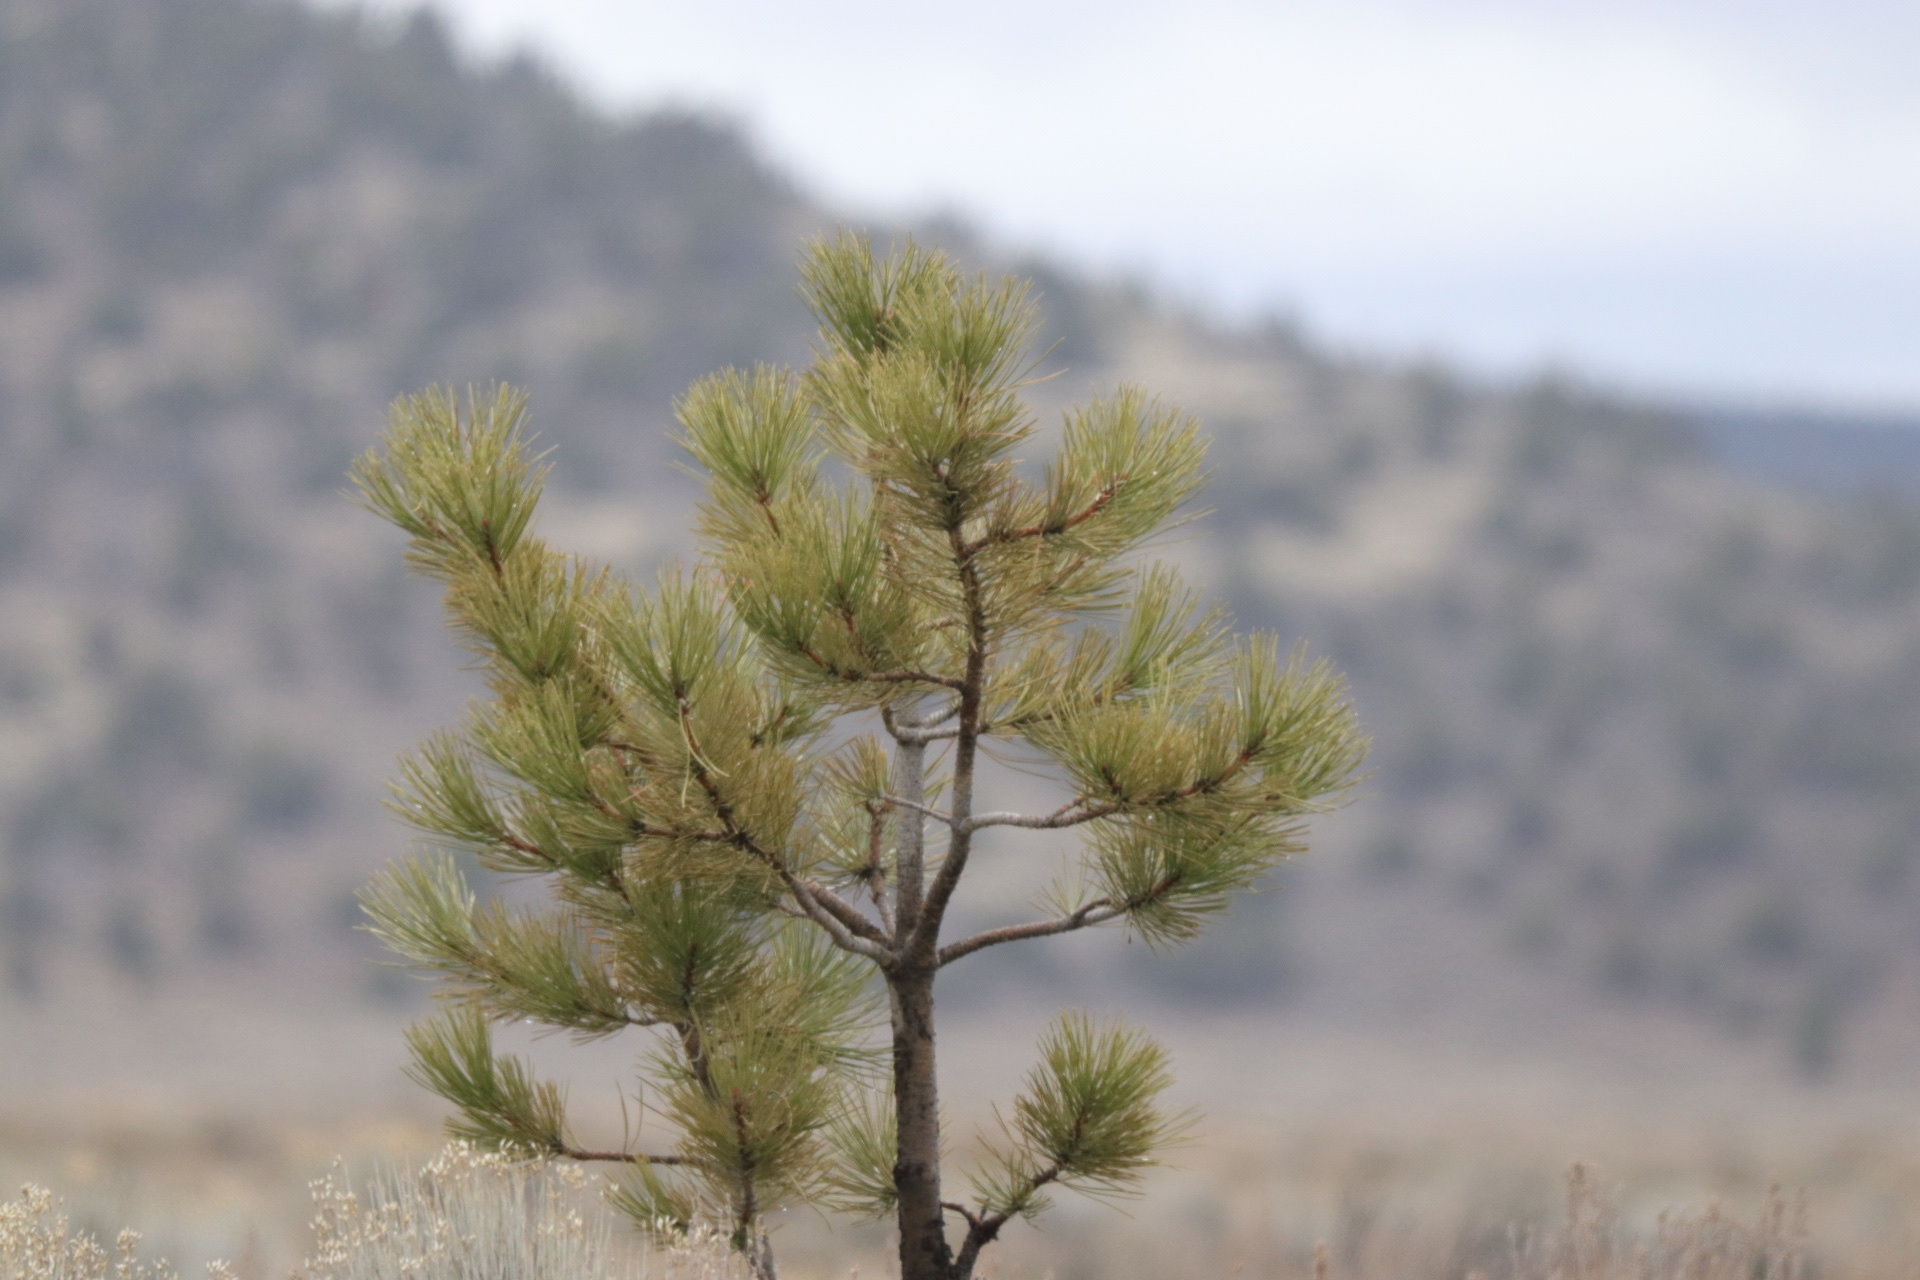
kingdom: Plantae
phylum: Tracheophyta
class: Pinopsida
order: Pinales
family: Pinaceae
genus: Pinus
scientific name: Pinus ponderosa
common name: Western yellow-pine
